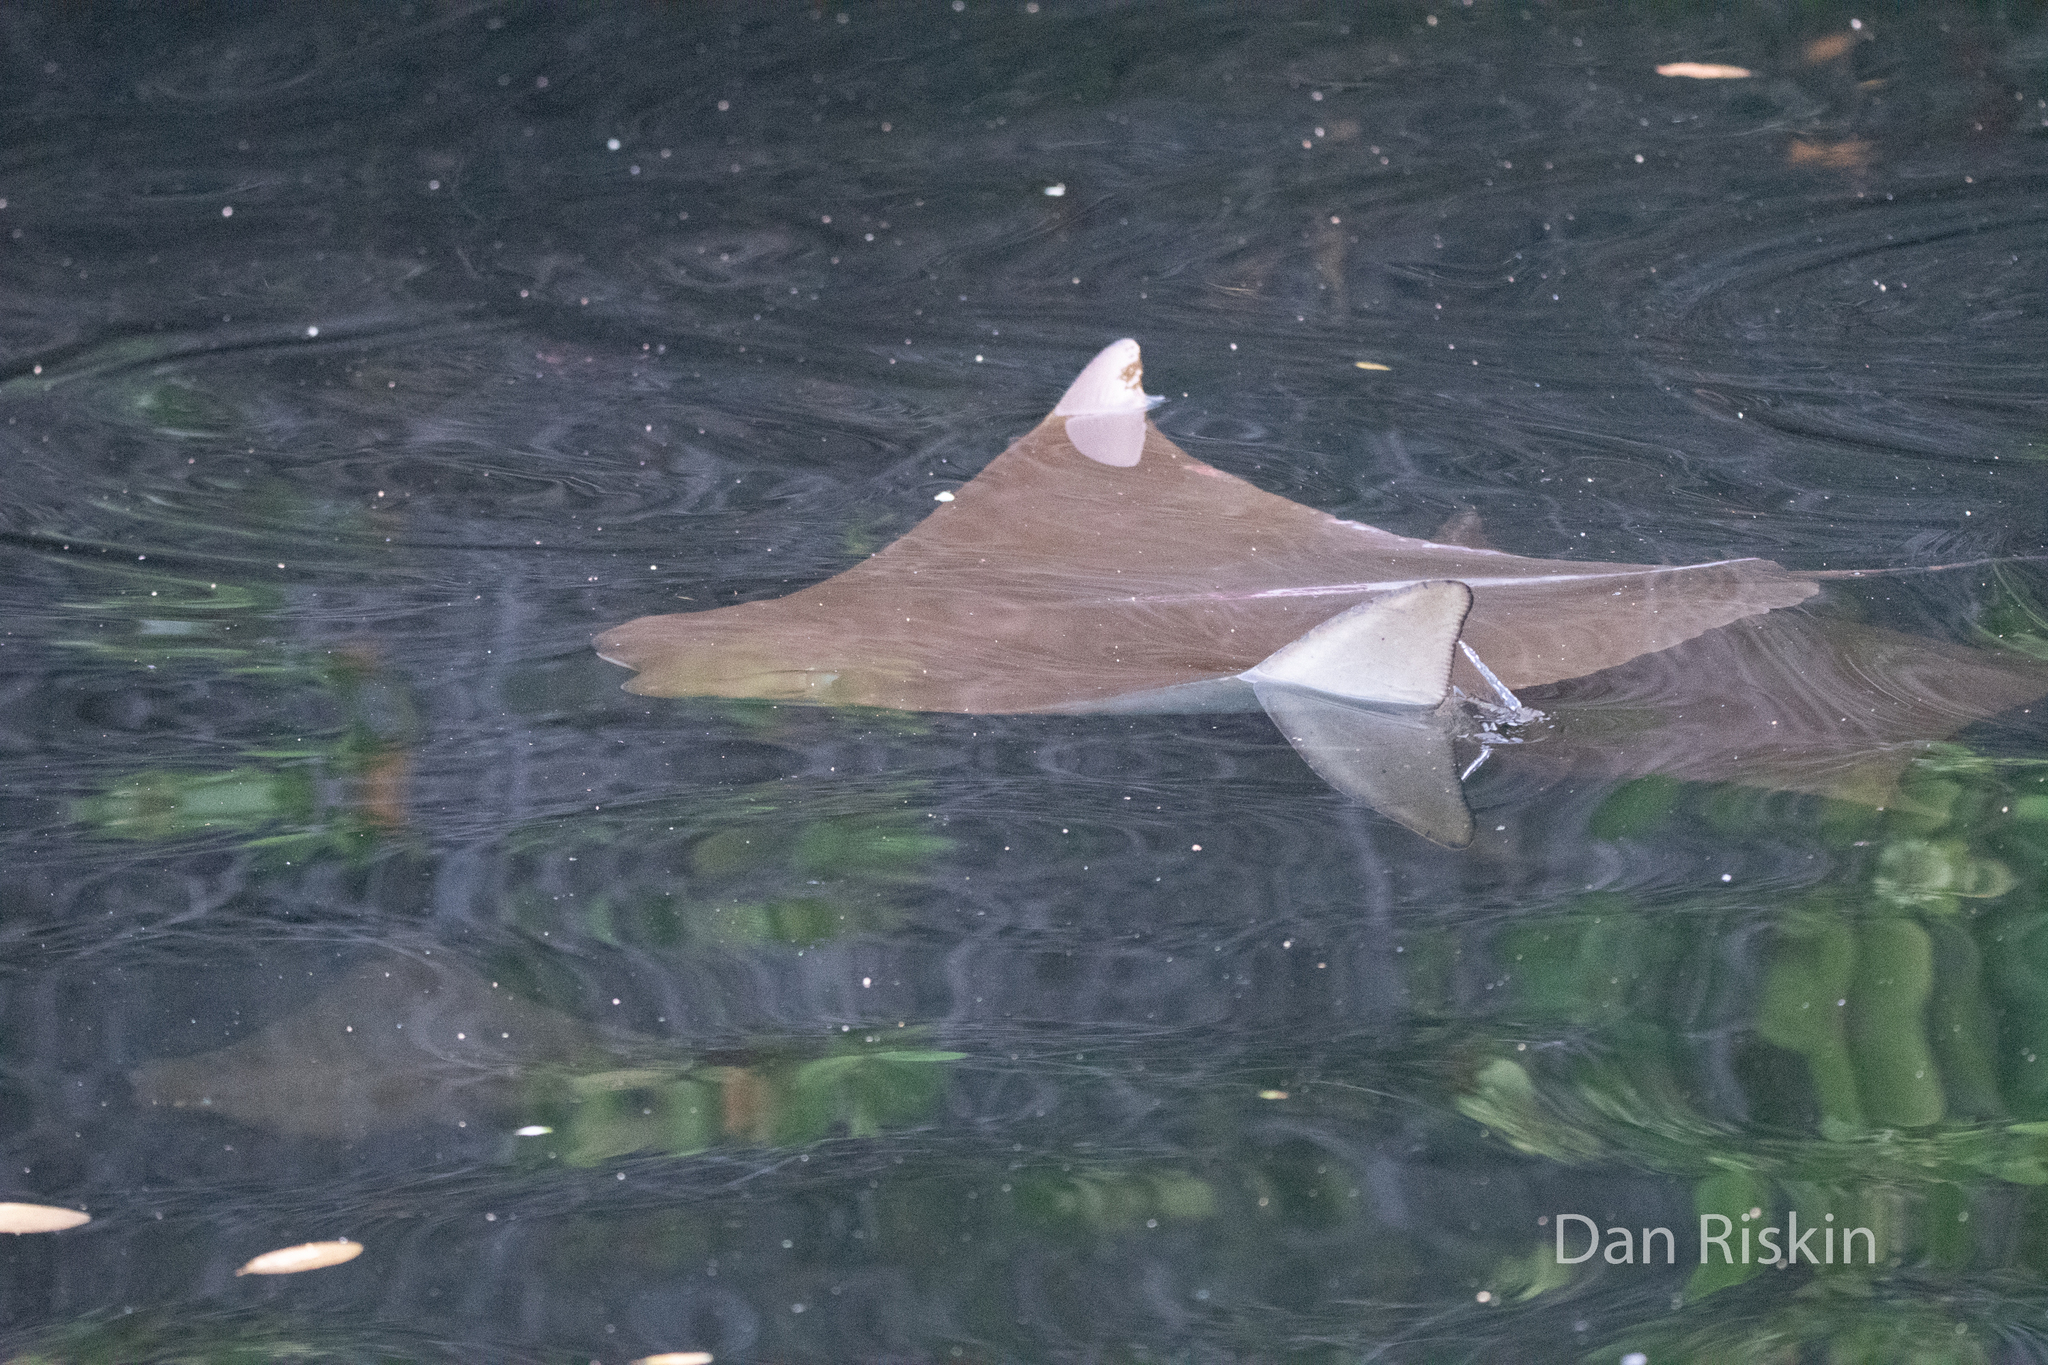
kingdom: Animalia
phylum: Chordata
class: Elasmobranchii
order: Myliobatiformes
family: Myliobatidae
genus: Rhinoptera
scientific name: Rhinoptera steindachneri
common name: Golden cownose ray
